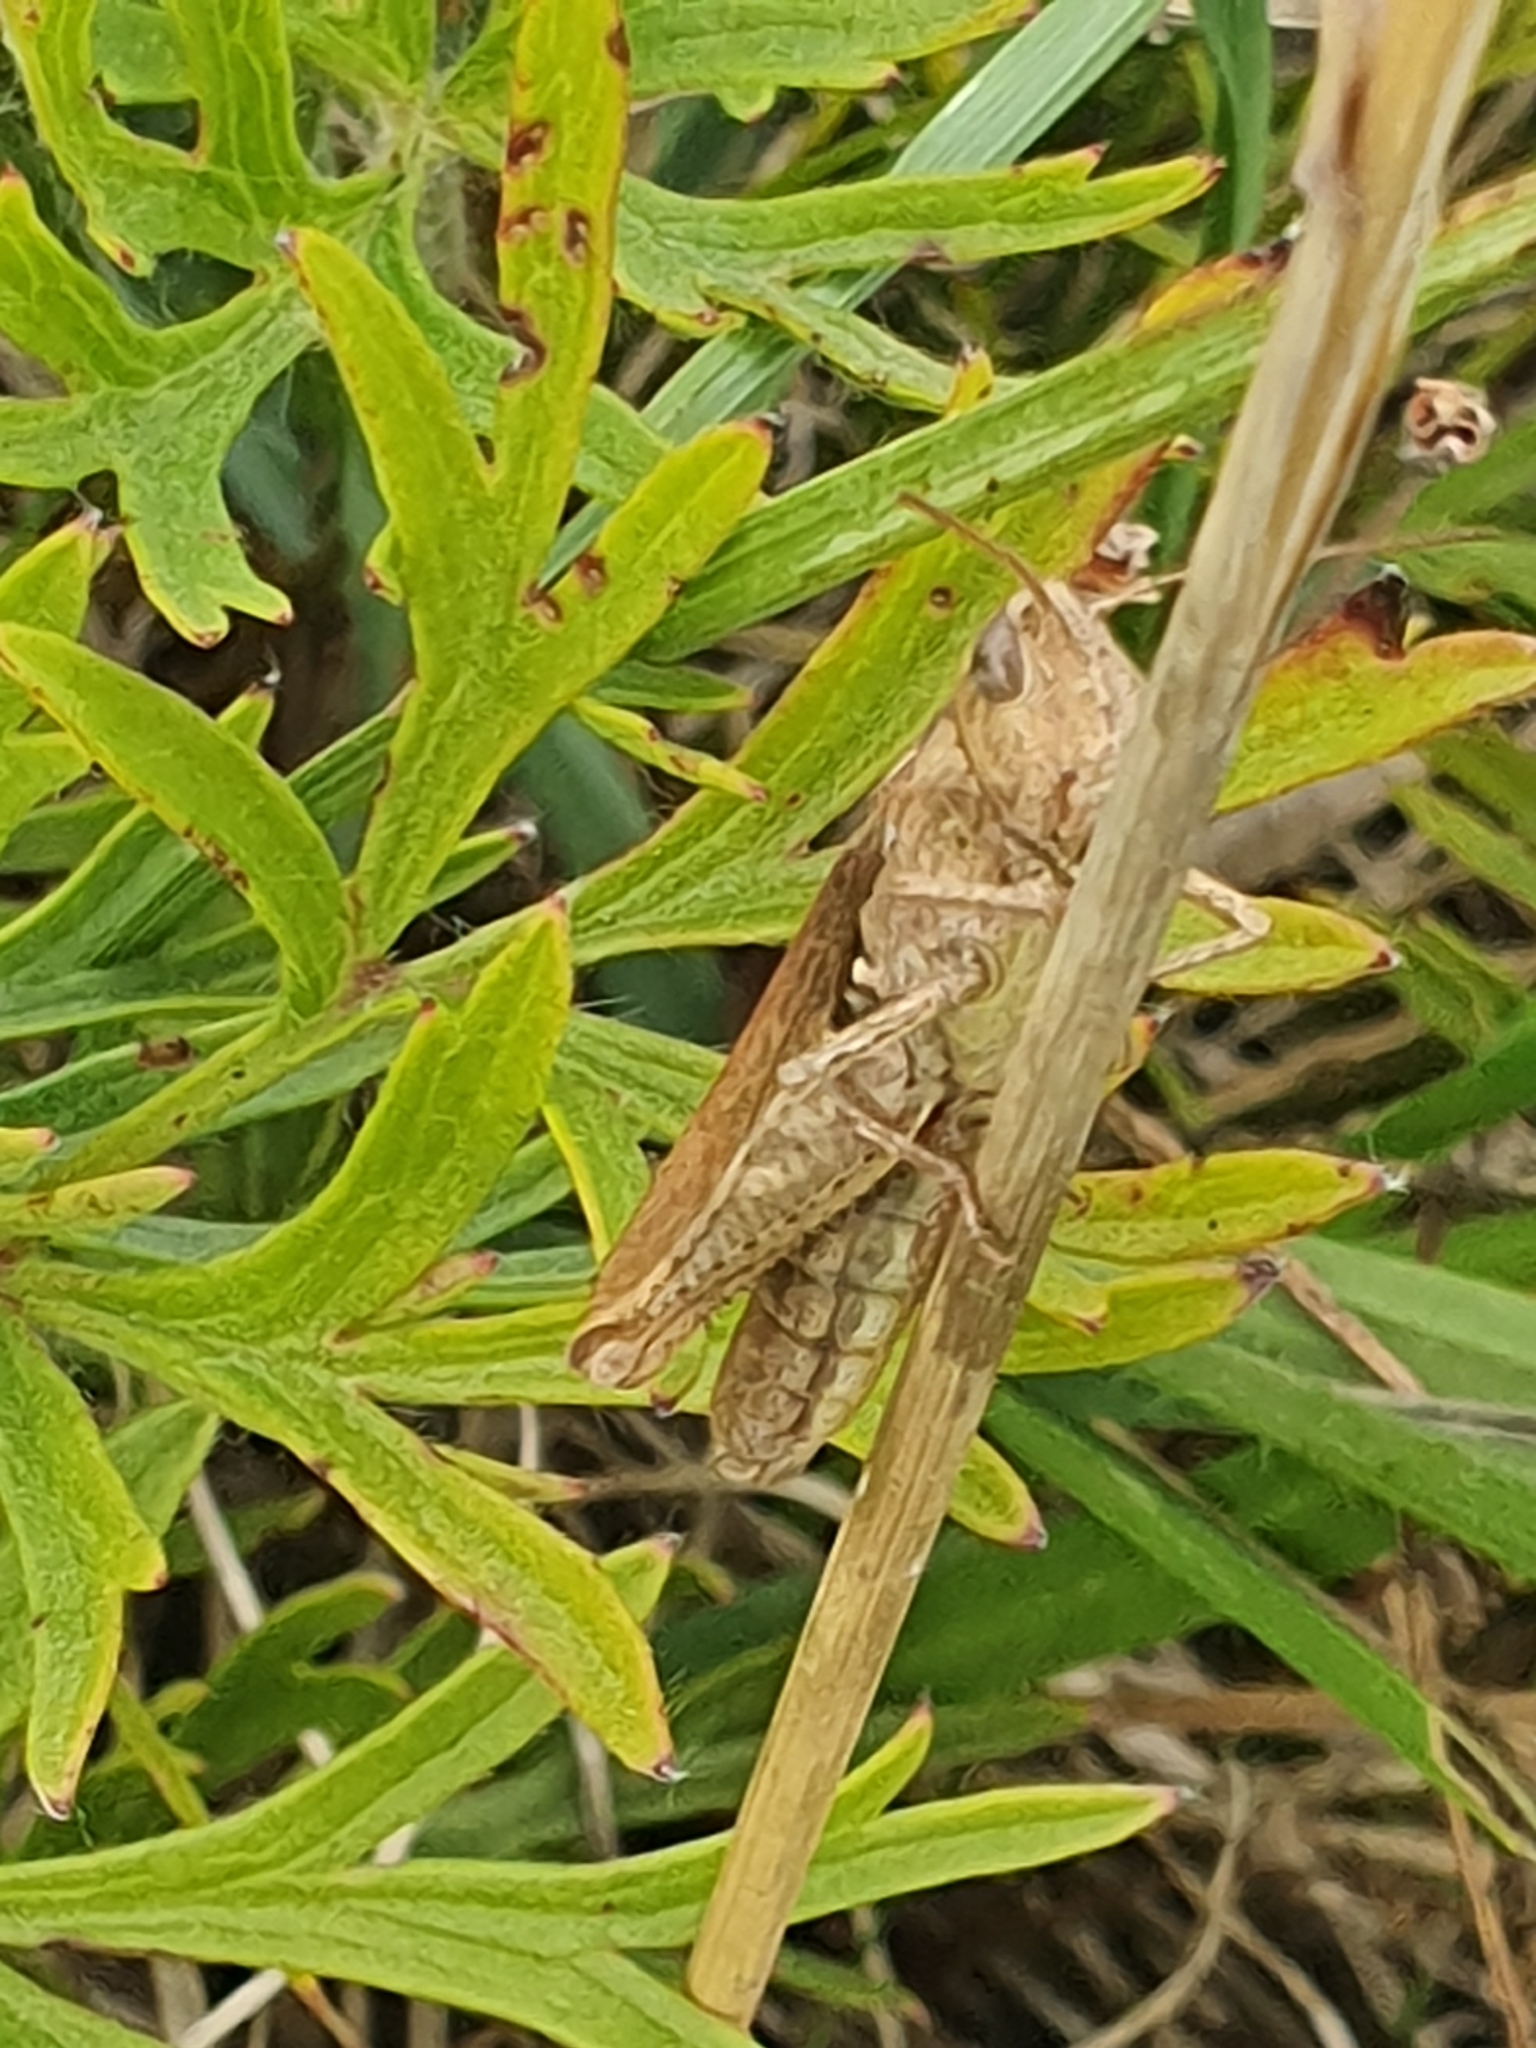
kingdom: Animalia
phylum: Arthropoda
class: Insecta
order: Orthoptera
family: Acrididae
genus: Glyptobothrus
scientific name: Glyptobothrus
